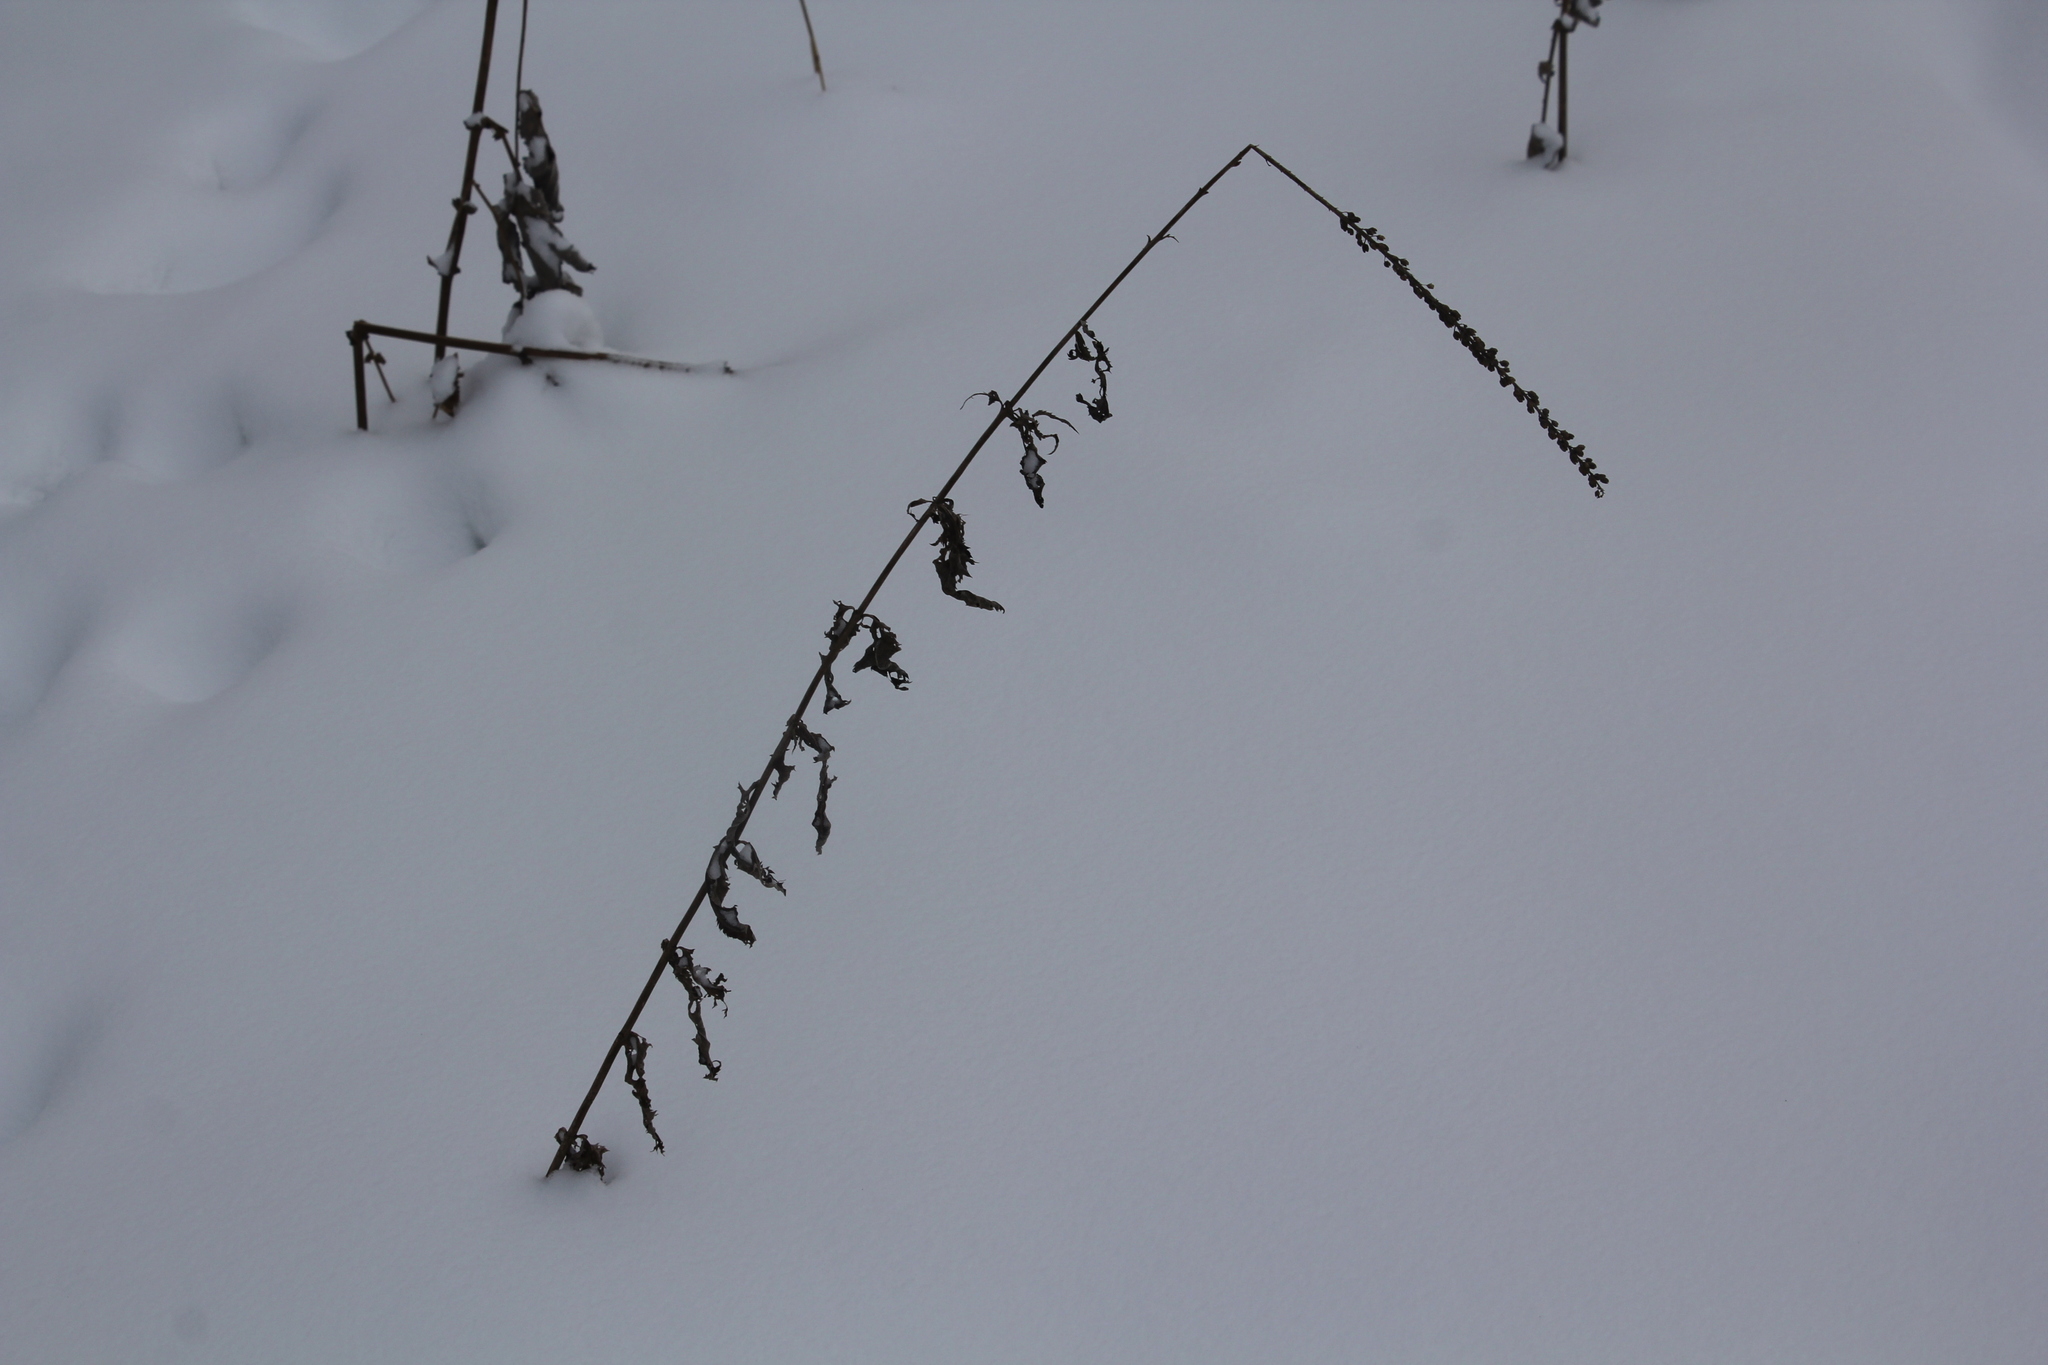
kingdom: Plantae
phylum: Tracheophyta
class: Magnoliopsida
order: Lamiales
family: Plantaginaceae
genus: Veronica
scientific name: Veronica longifolia
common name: Garden speedwell
